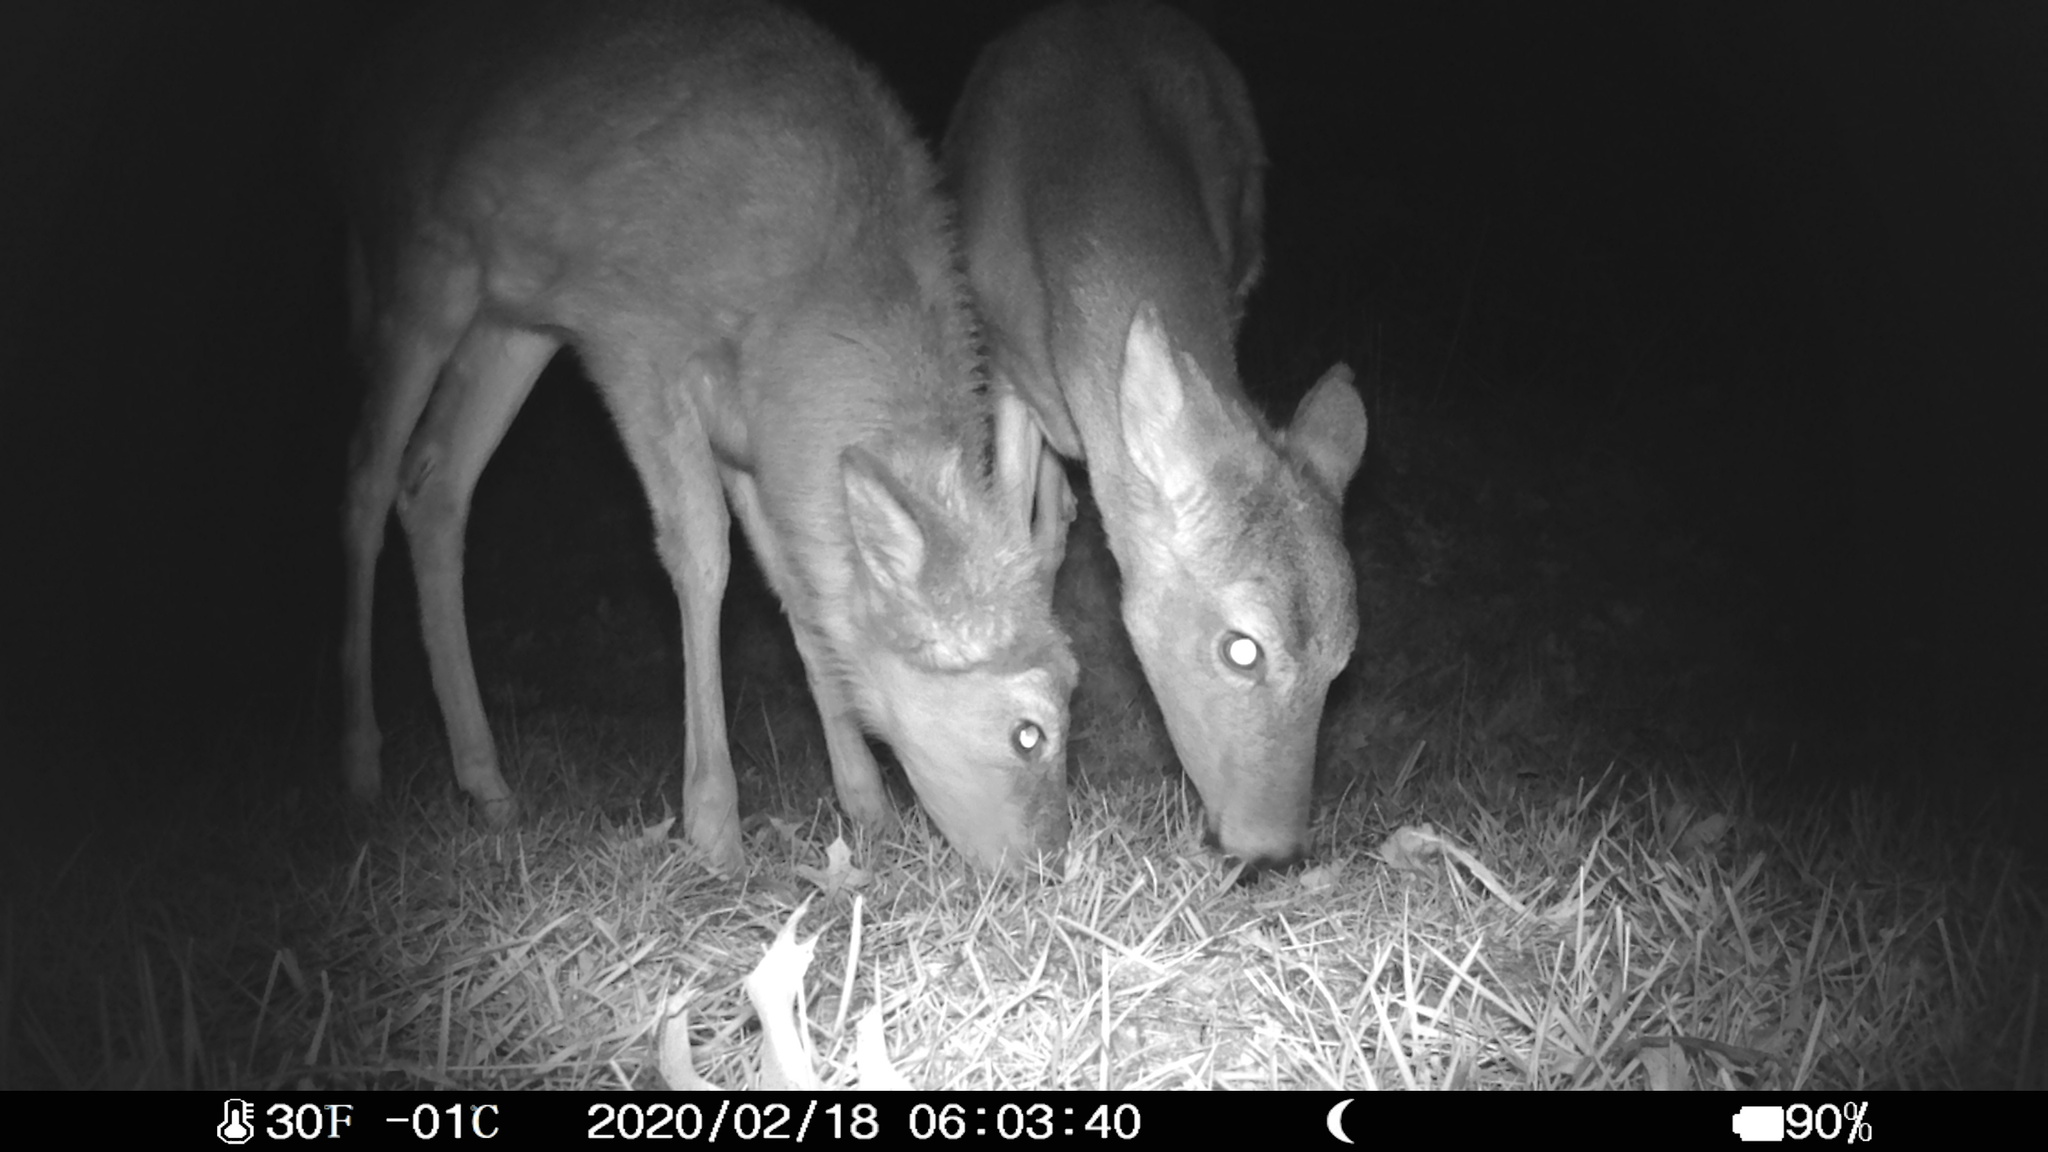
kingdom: Animalia
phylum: Chordata
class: Mammalia
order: Artiodactyla
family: Cervidae
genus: Odocoileus
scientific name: Odocoileus virginianus
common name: White-tailed deer
